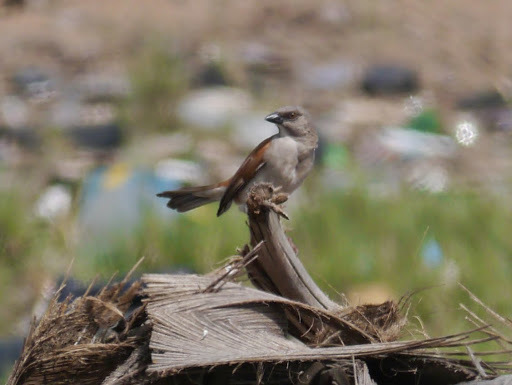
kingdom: Animalia
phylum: Chordata
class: Aves
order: Passeriformes
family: Passeridae
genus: Passer
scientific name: Passer griseus
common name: Northern grey-headed sparrow
